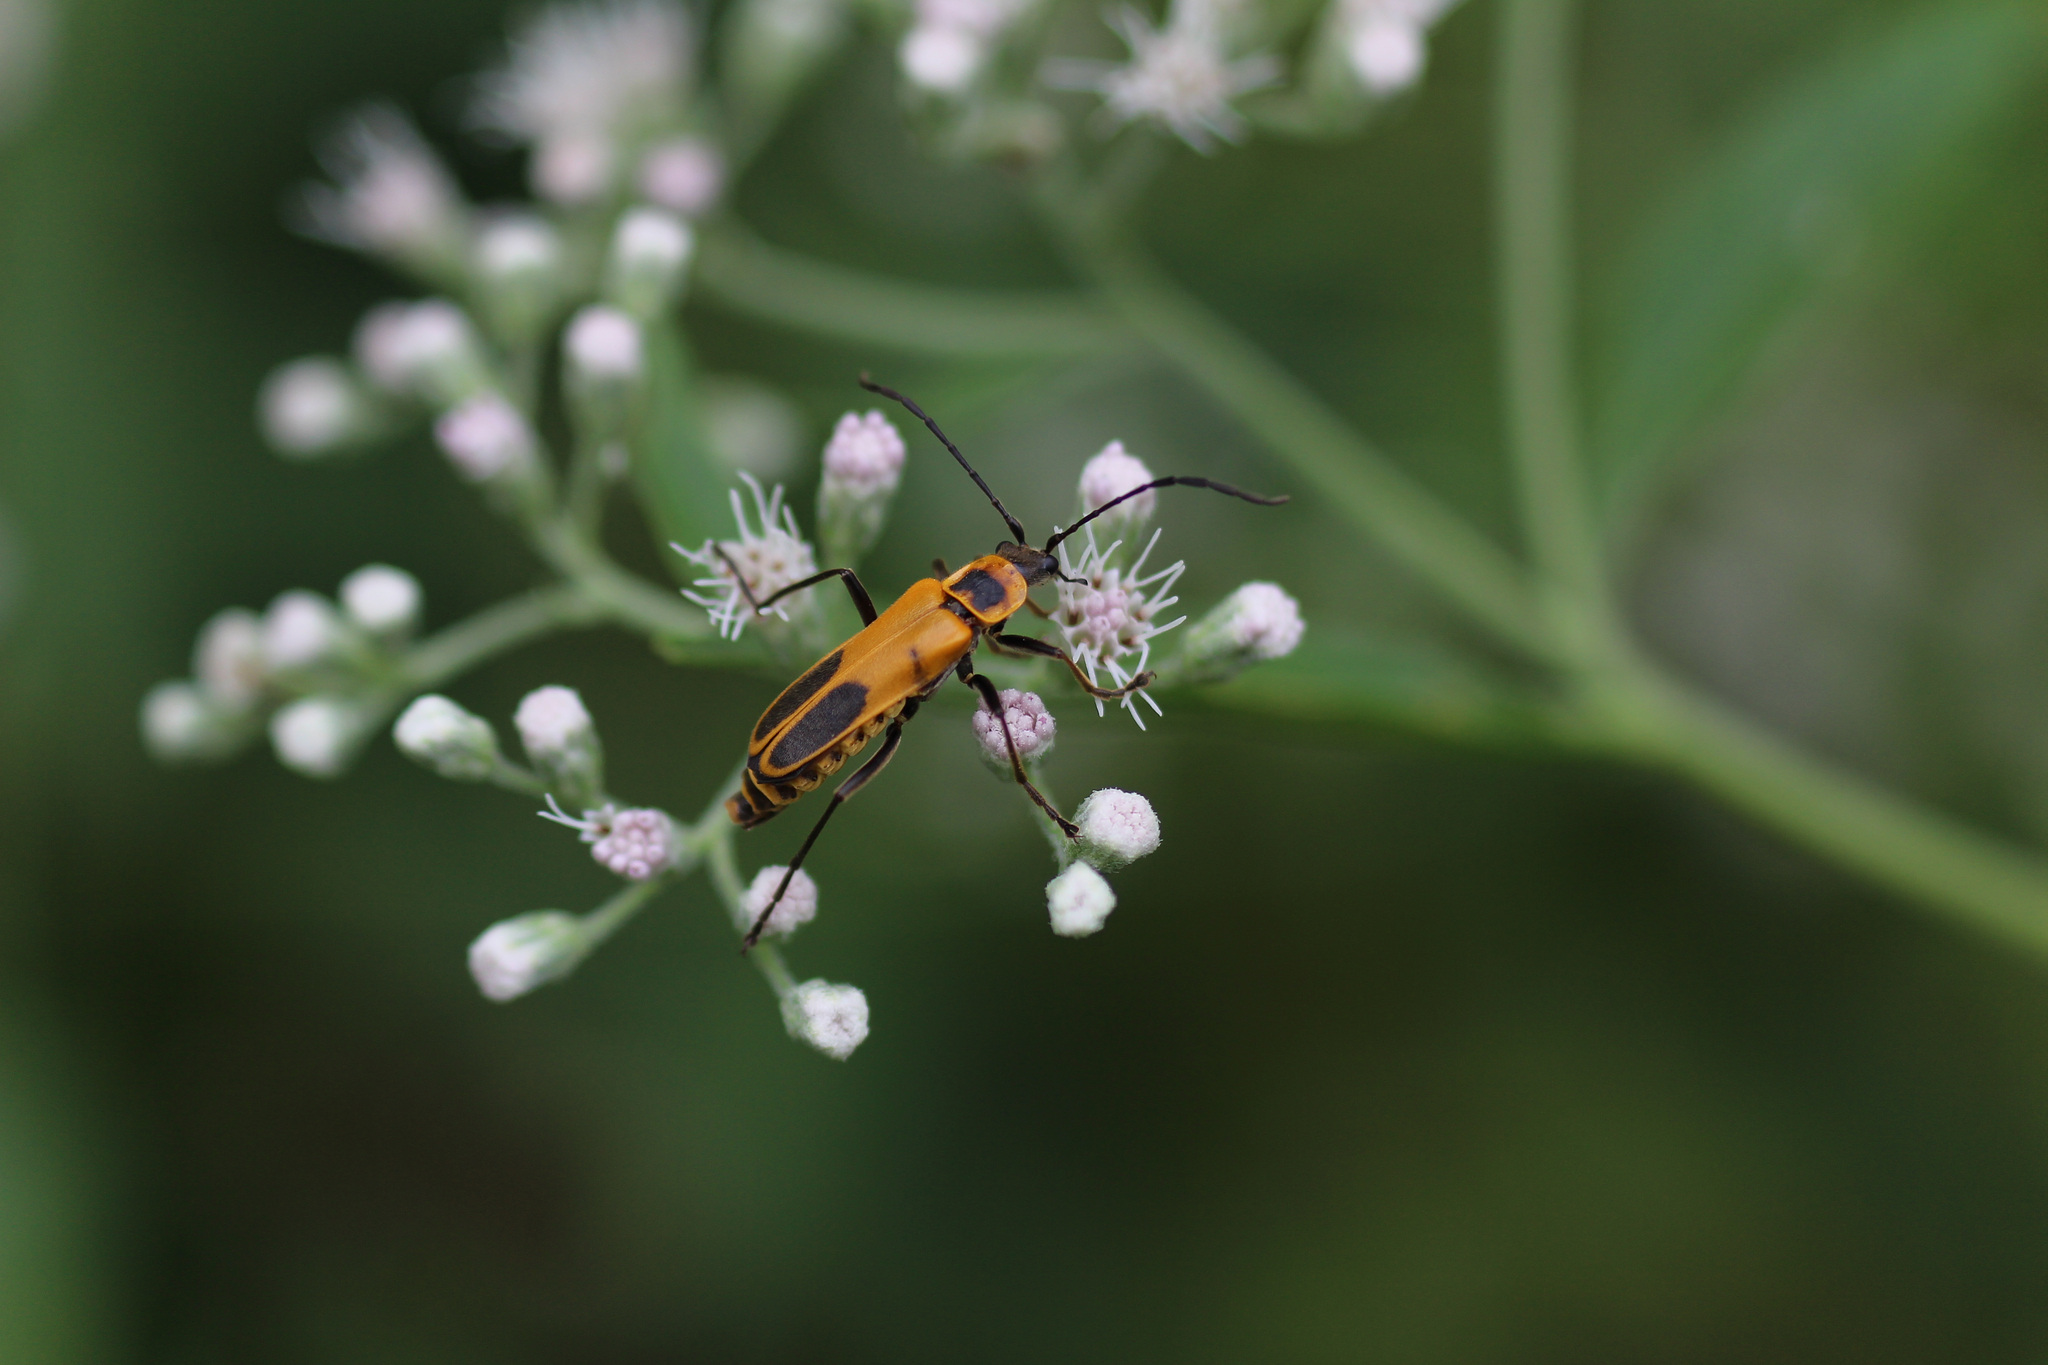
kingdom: Animalia
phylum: Arthropoda
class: Insecta
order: Coleoptera
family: Cantharidae
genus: Chauliognathus
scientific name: Chauliognathus pensylvanicus
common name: Goldenrod soldier beetle
